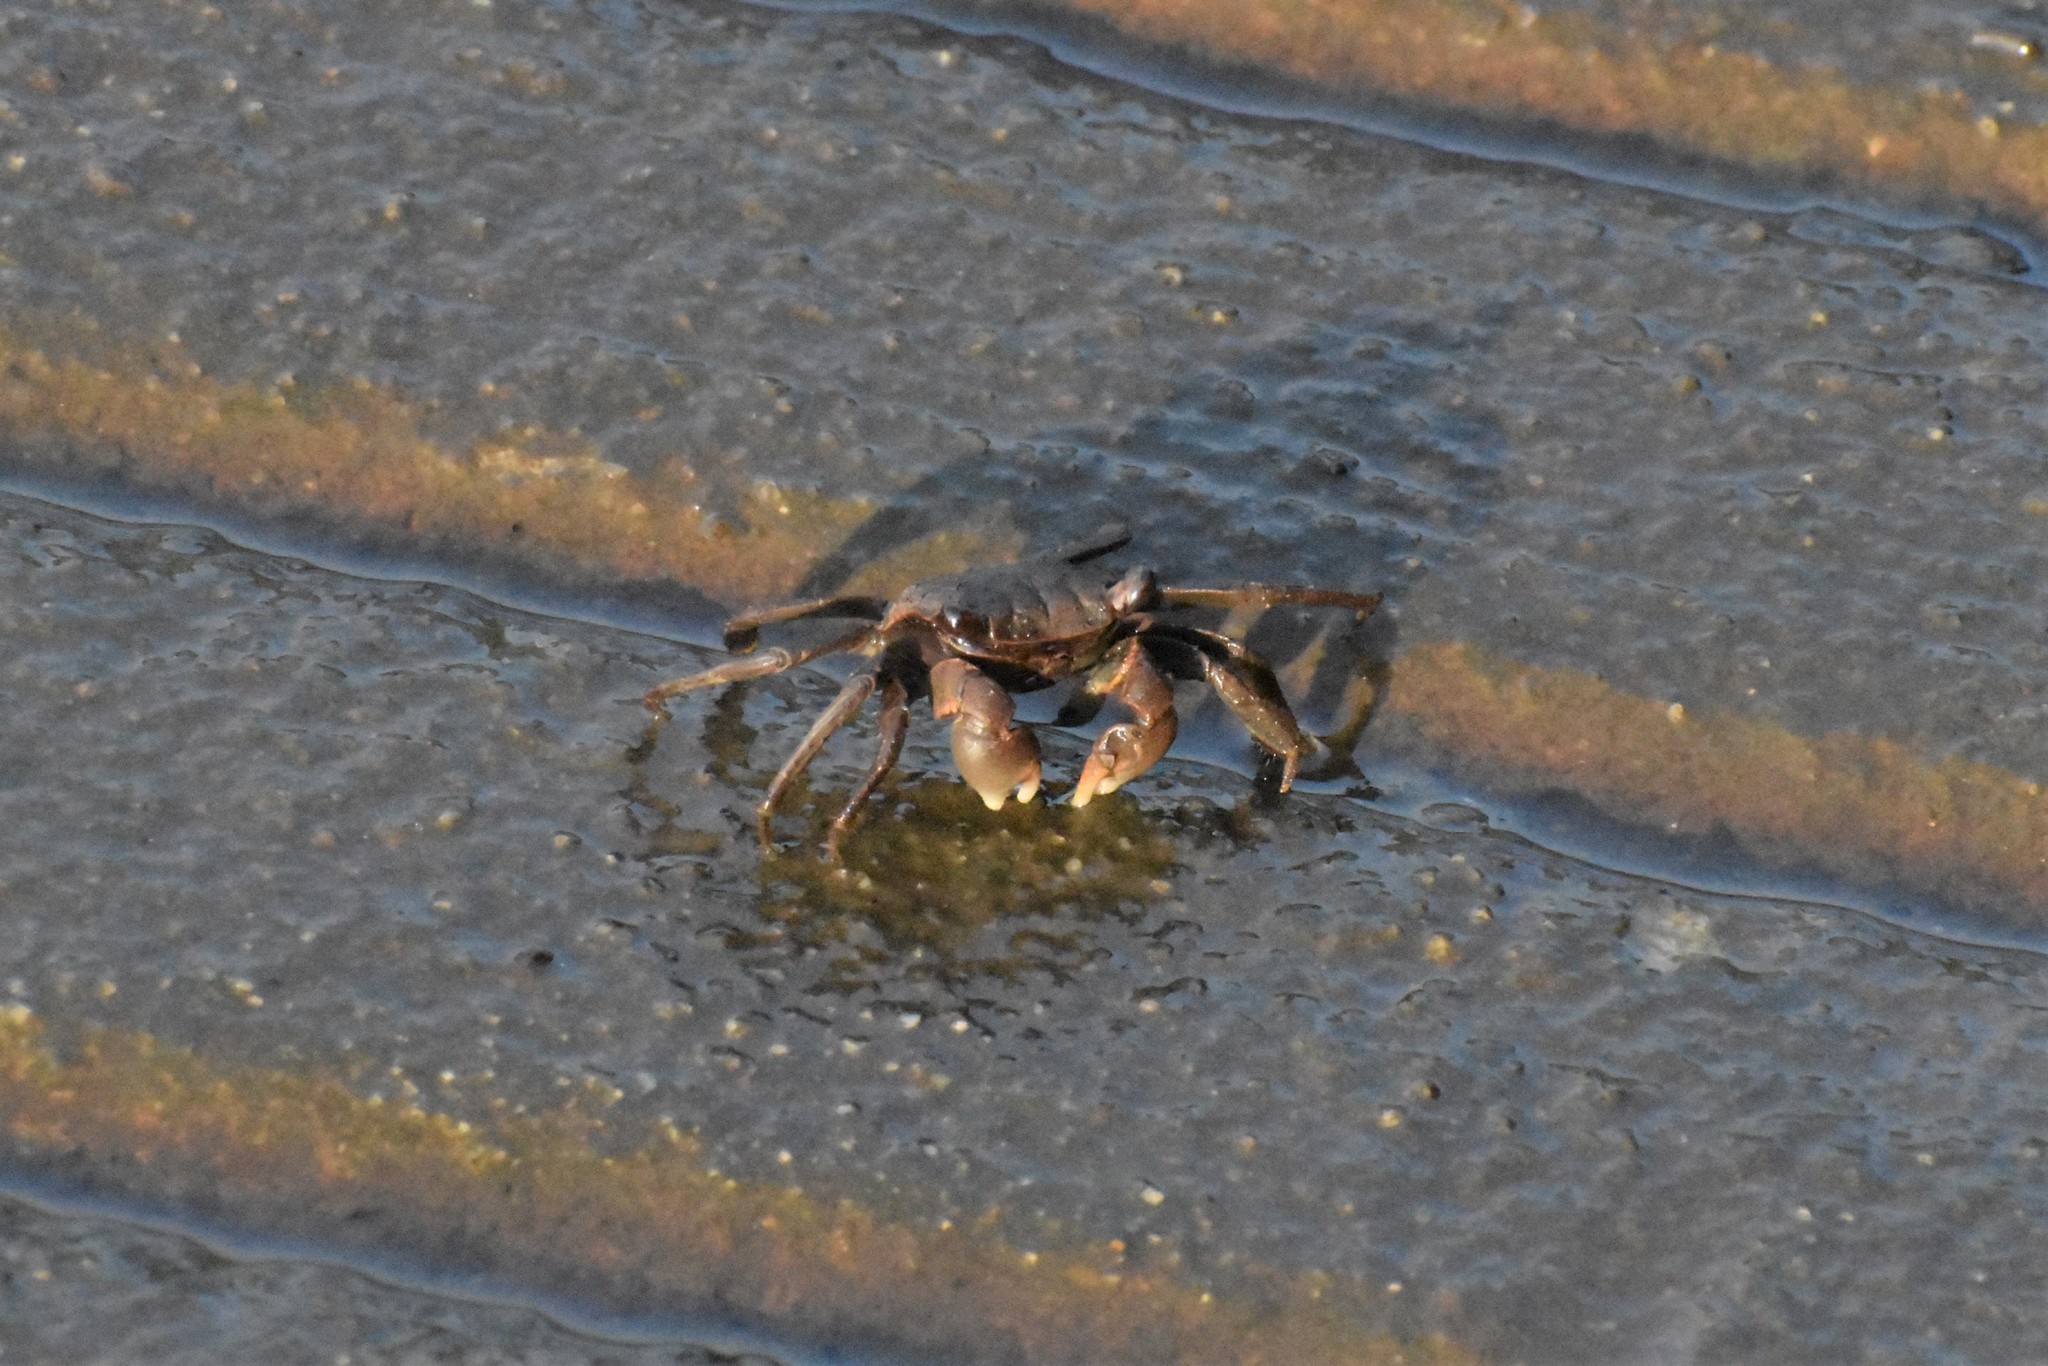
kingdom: Animalia
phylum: Arthropoda
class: Malacostraca
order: Decapoda
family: Sesarmidae
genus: Armases
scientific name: Armases cinereum
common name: Squareback marsh crab
